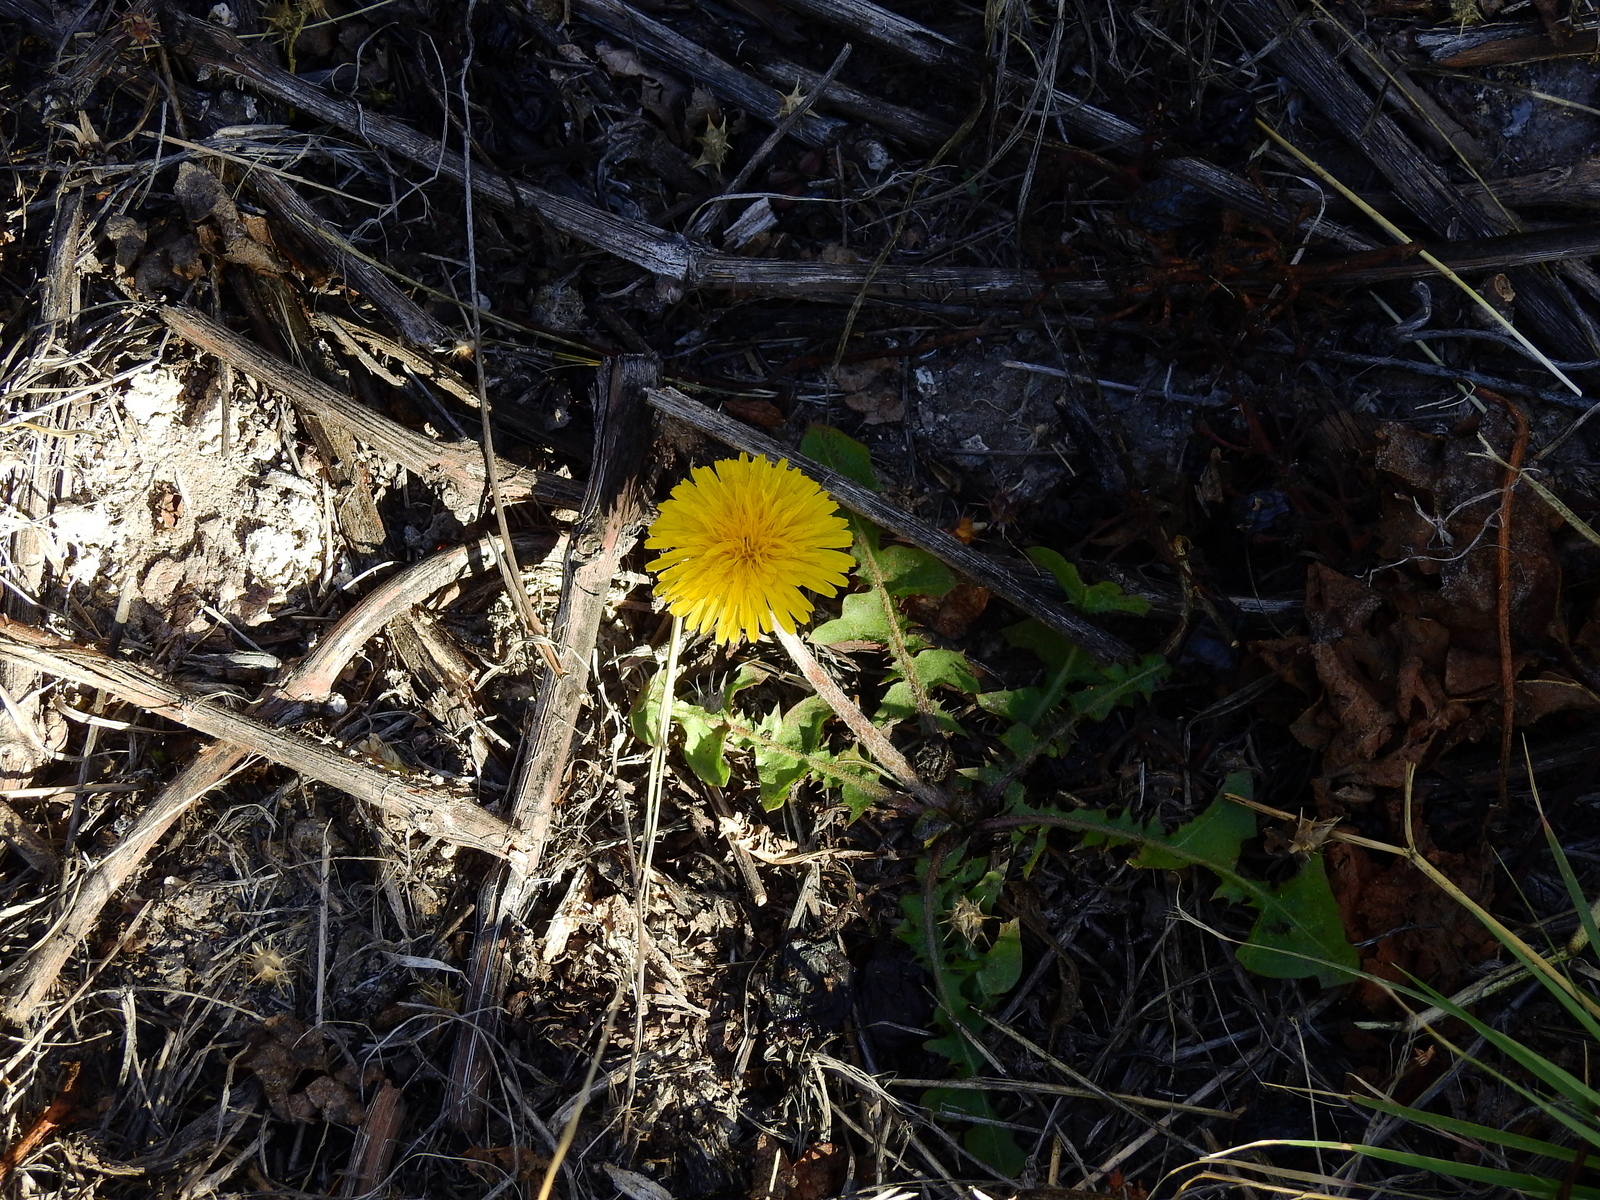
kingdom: Plantae
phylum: Tracheophyta
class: Magnoliopsida
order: Asterales
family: Asteraceae
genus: Taraxacum
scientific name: Taraxacum officinale
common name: Common dandelion
